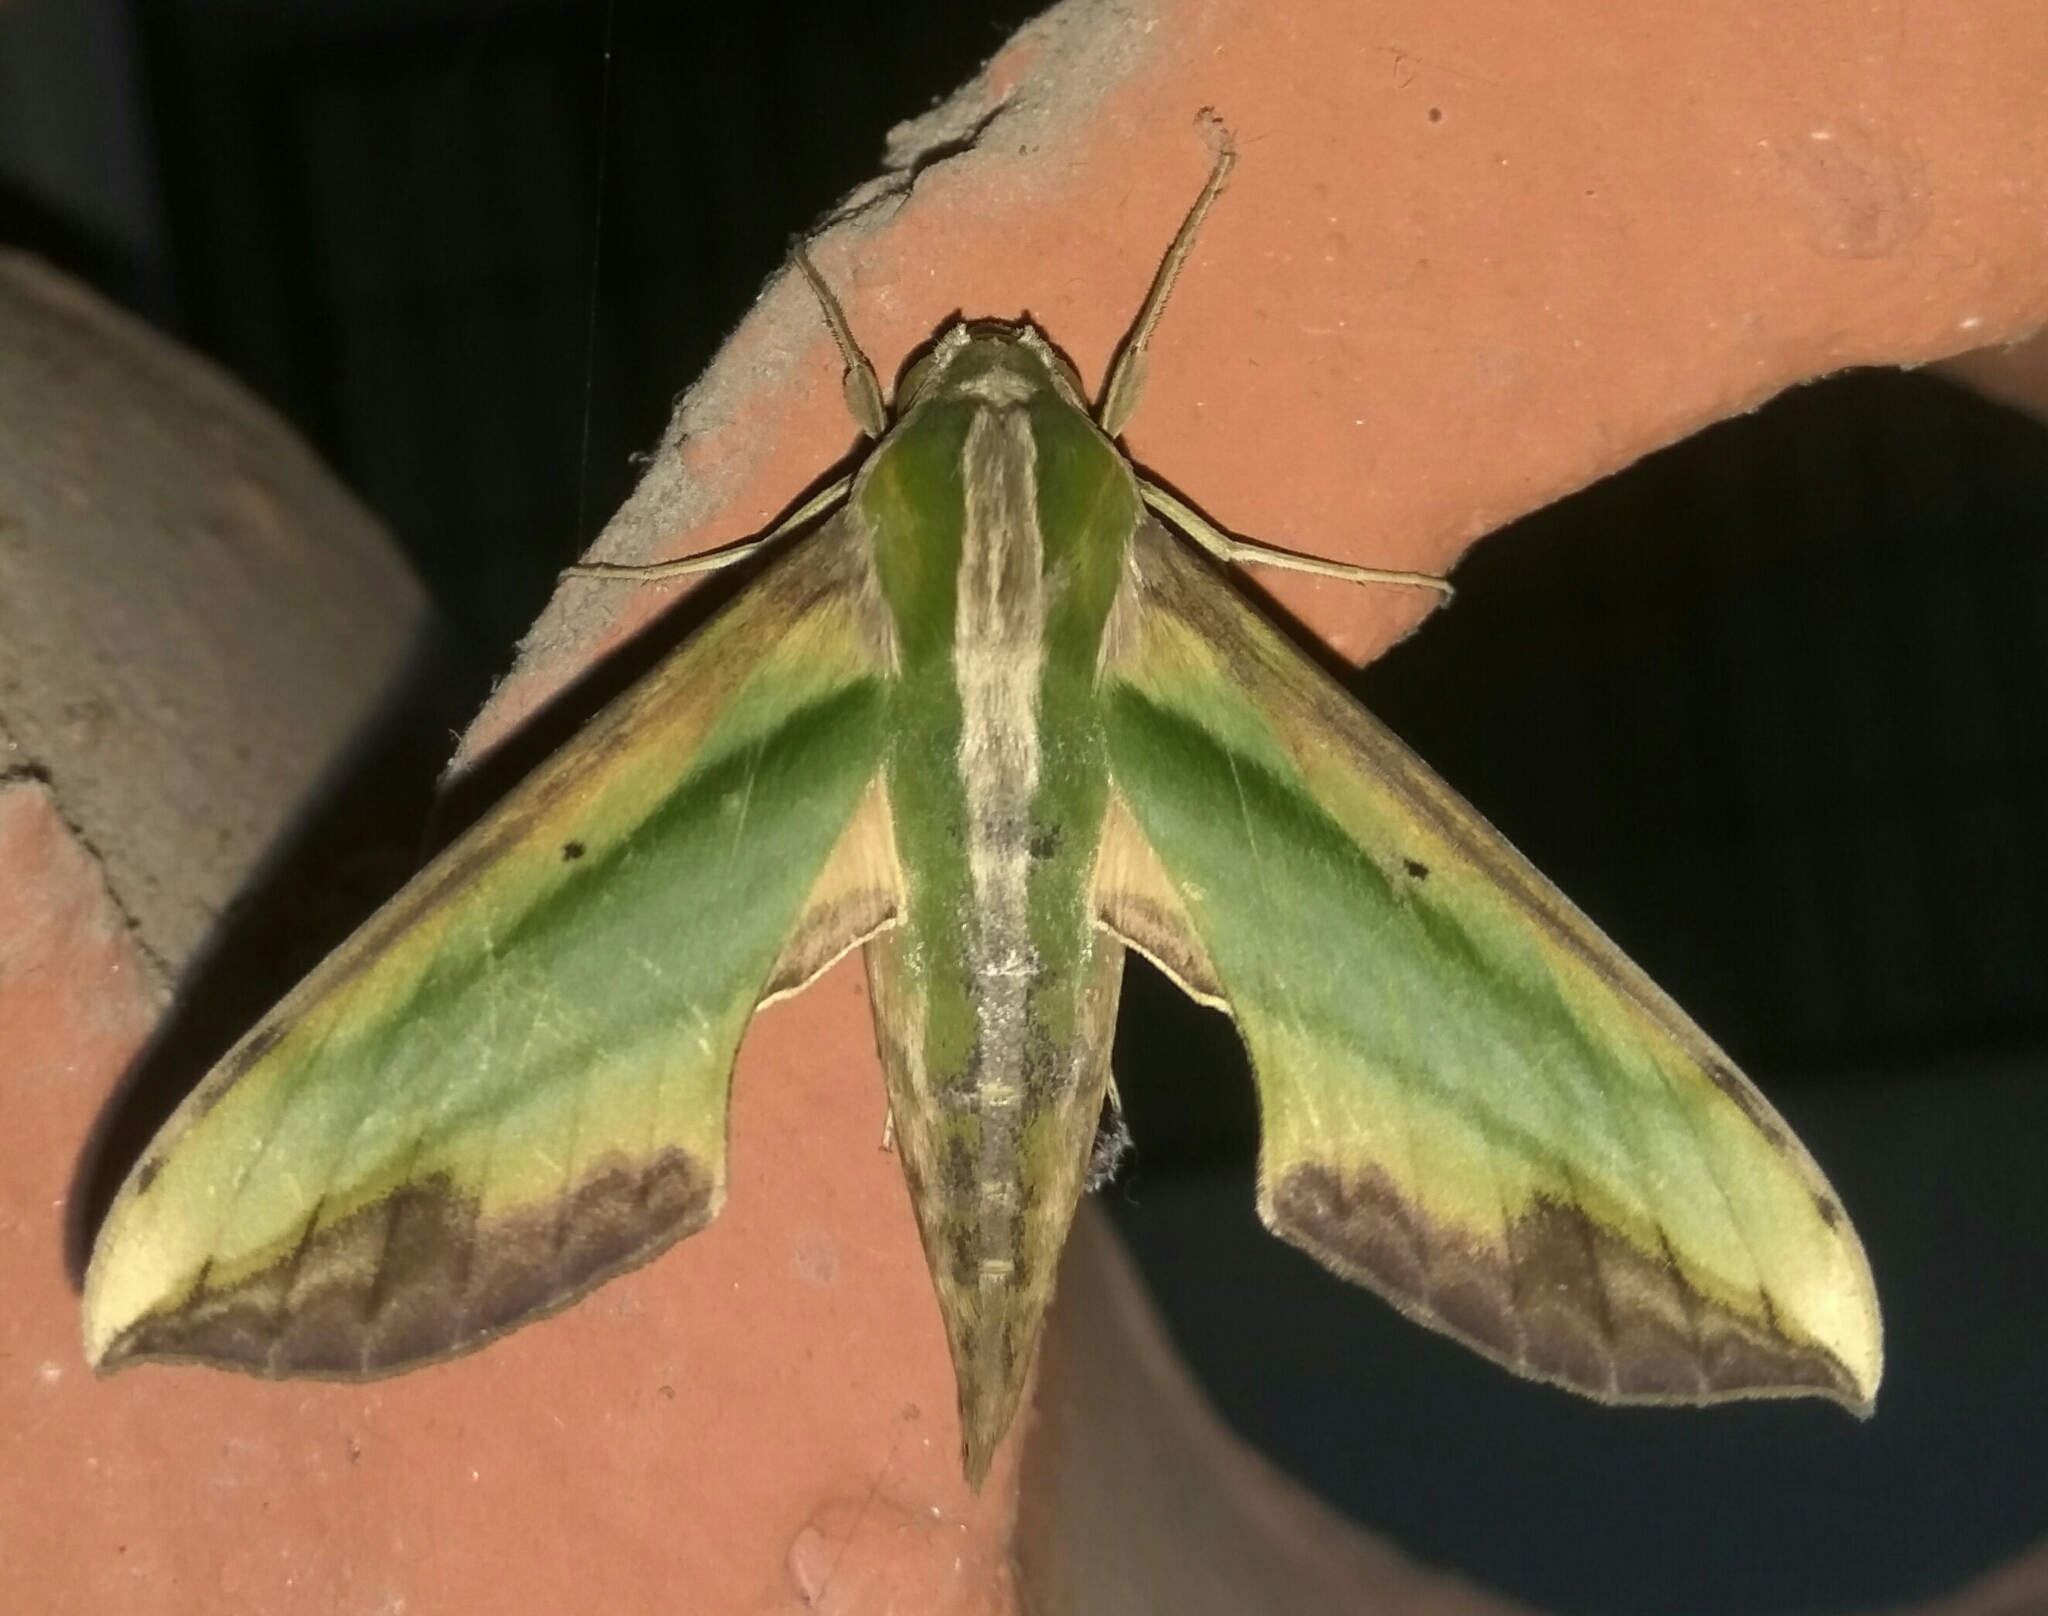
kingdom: Animalia
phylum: Arthropoda
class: Insecta
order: Lepidoptera
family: Sphingidae
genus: Pergesa
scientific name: Pergesa acteus
